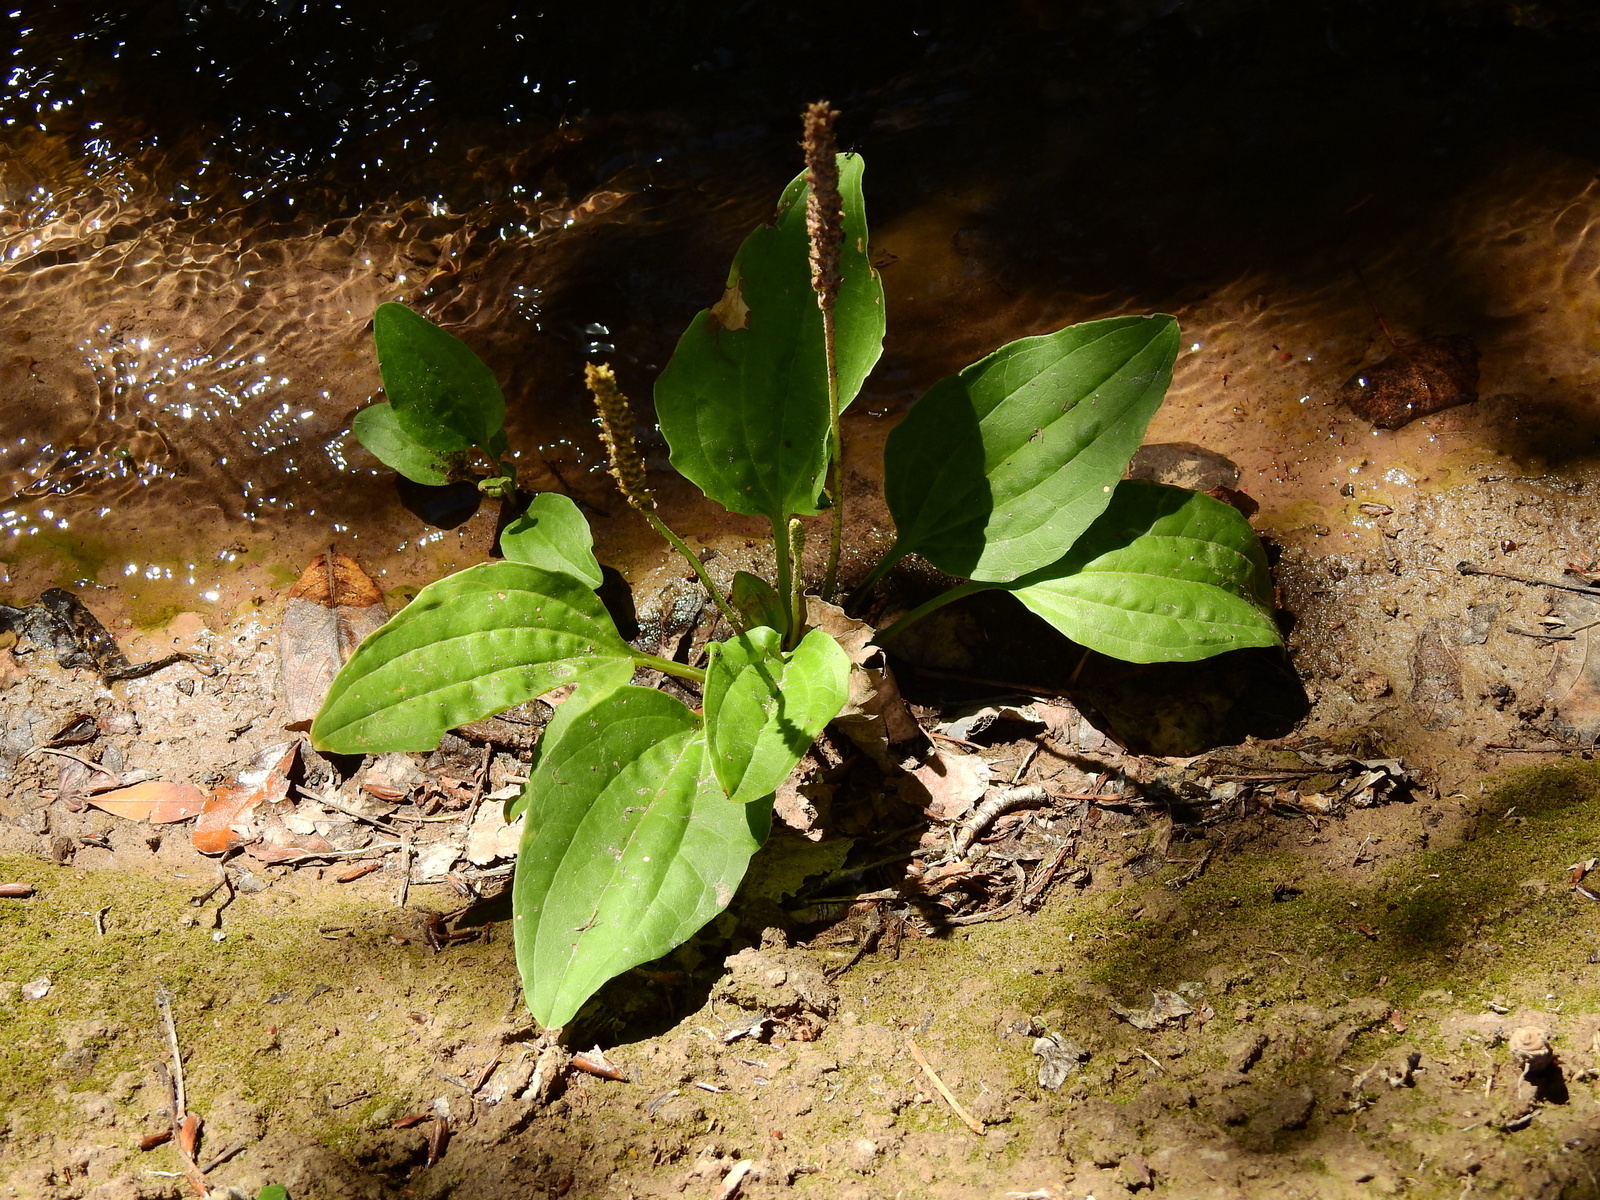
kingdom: Plantae
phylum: Tracheophyta
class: Magnoliopsida
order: Lamiales
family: Plantaginaceae
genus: Plantago
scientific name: Plantago major
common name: Common plantain
